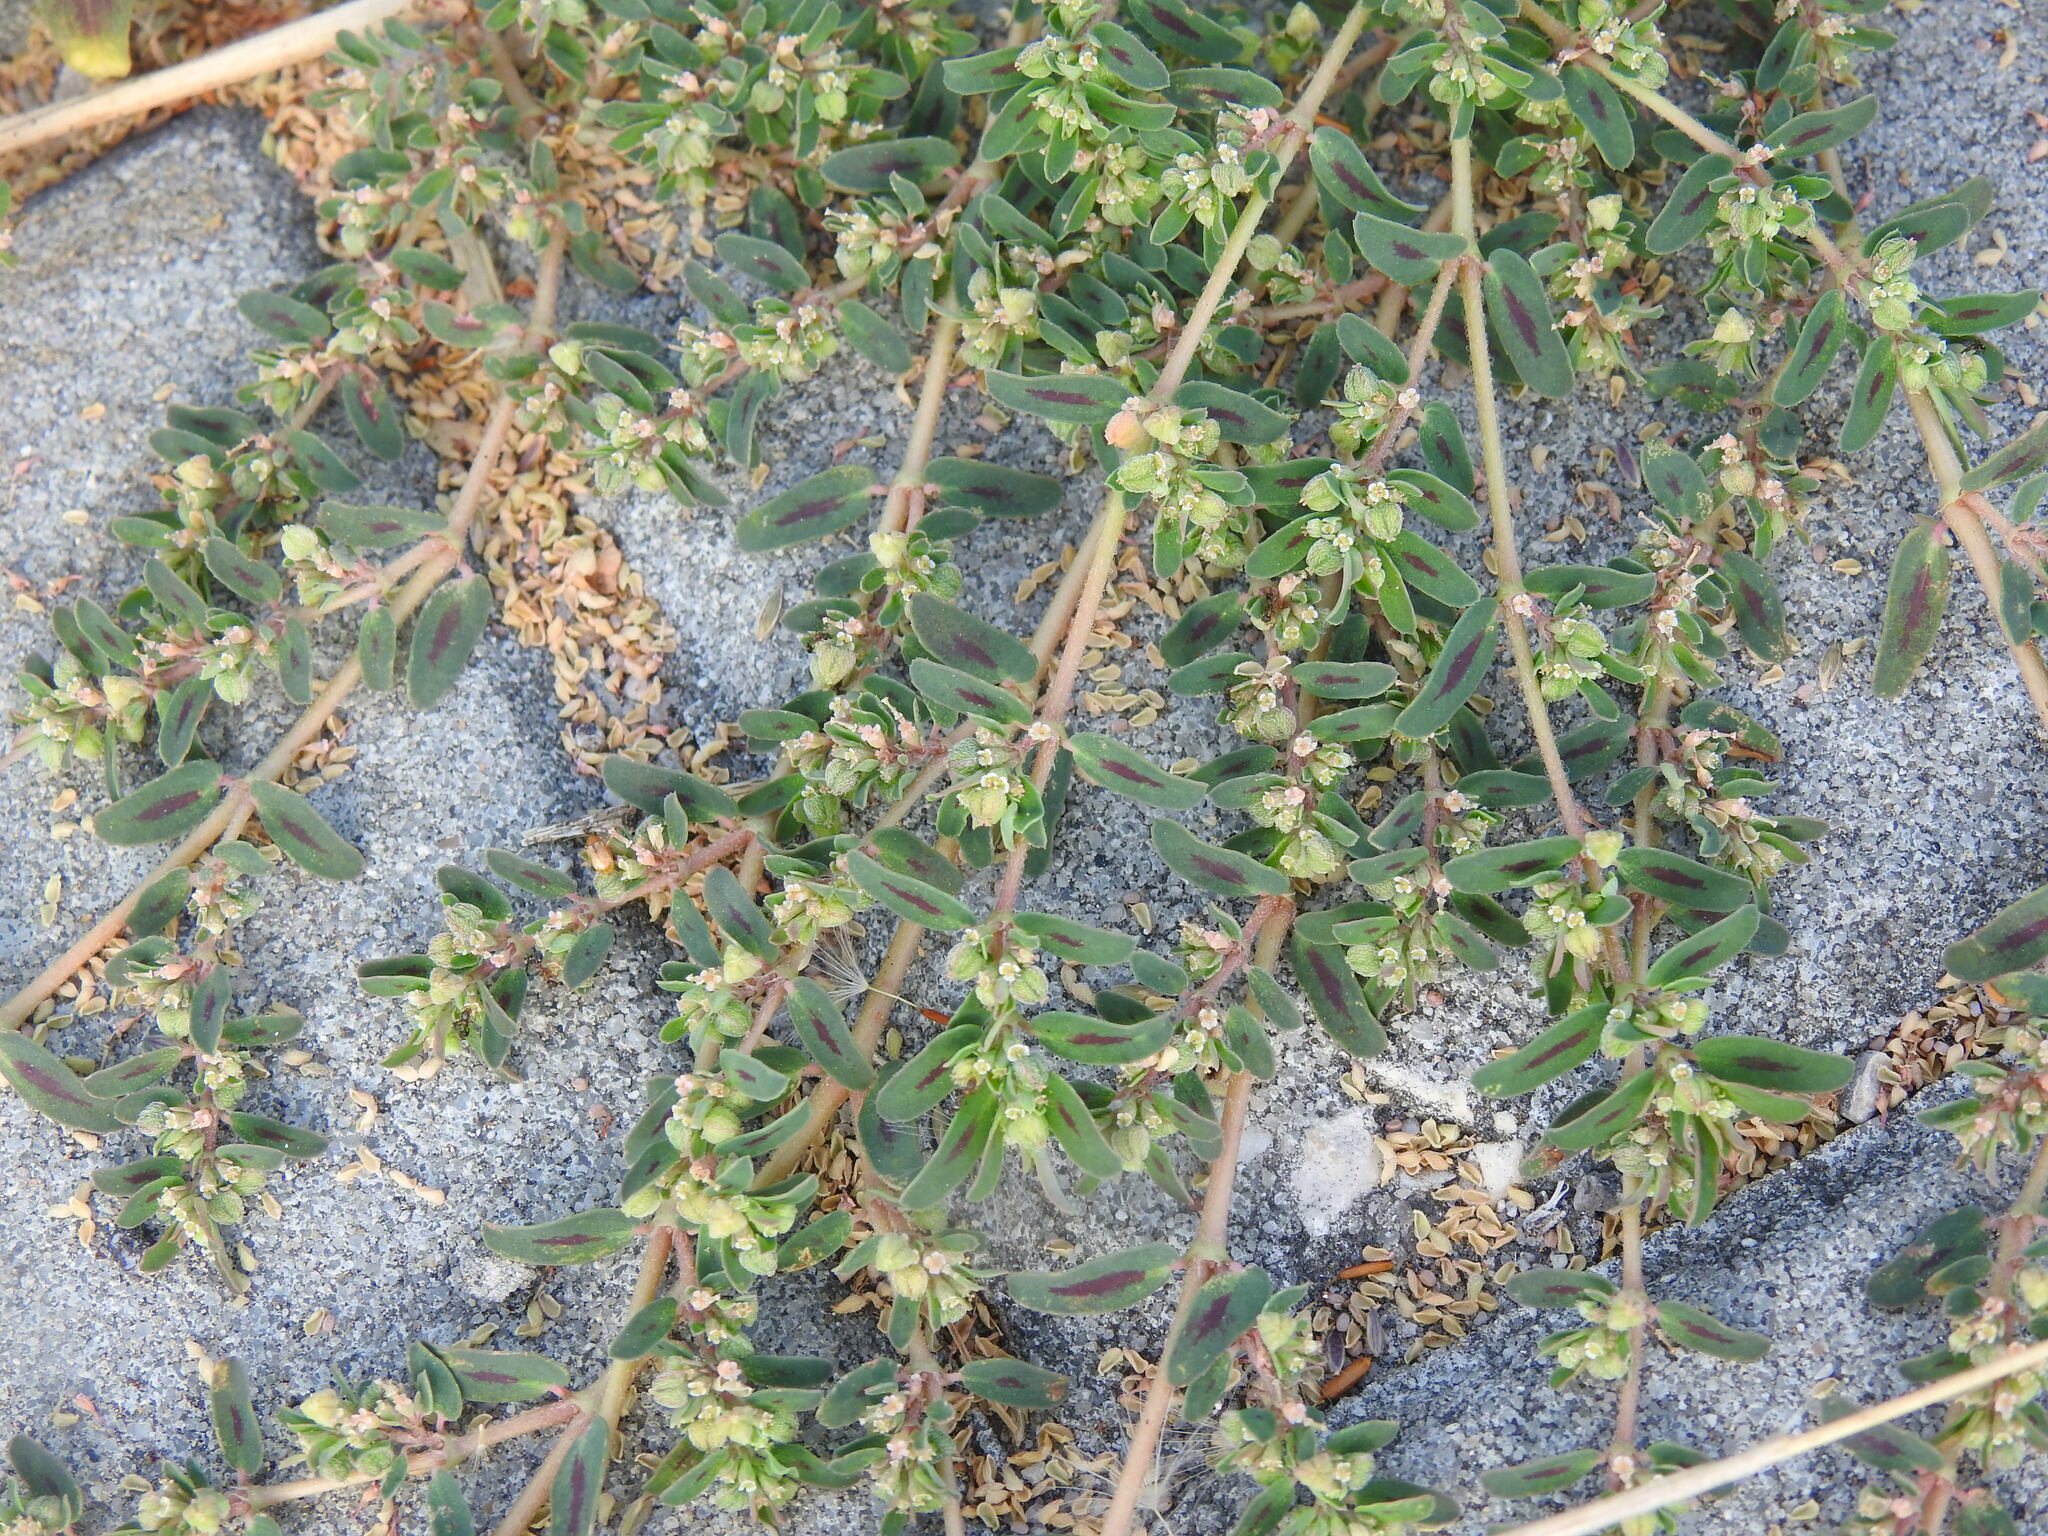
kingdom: Plantae
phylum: Tracheophyta
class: Magnoliopsida
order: Malpighiales
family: Euphorbiaceae
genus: Euphorbia
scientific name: Euphorbia maculata
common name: Spotted spurge
